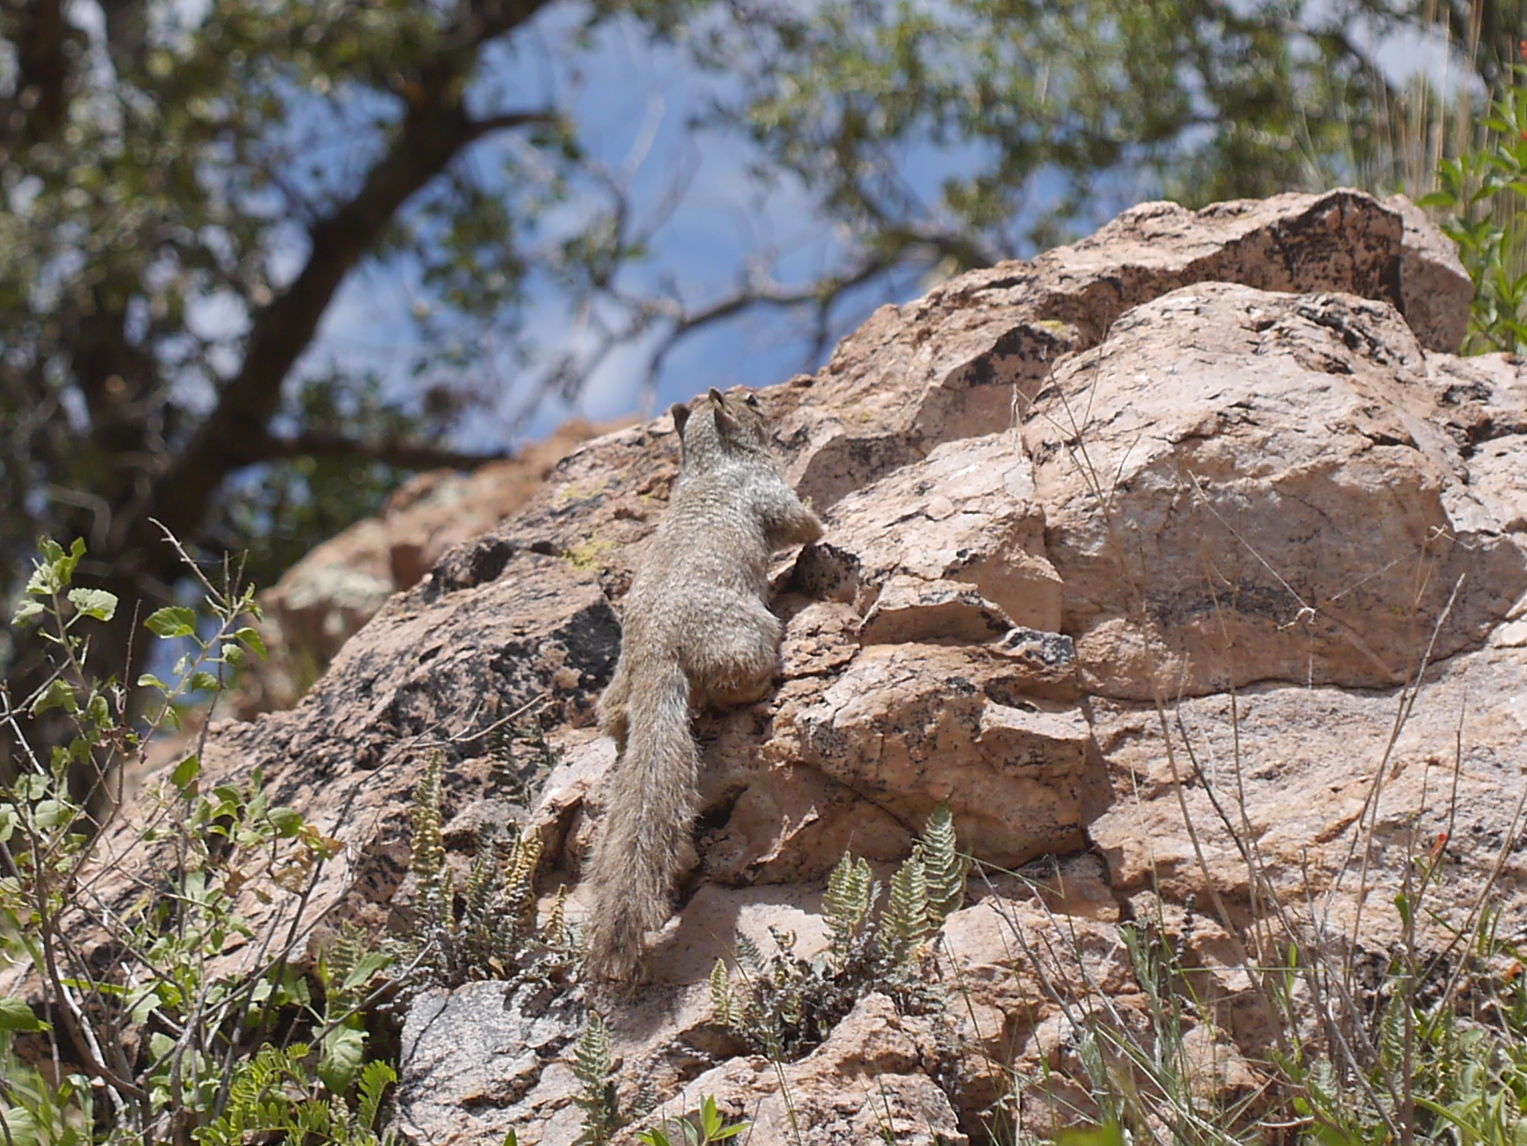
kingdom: Animalia
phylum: Chordata
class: Mammalia
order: Rodentia
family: Sciuridae
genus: Otospermophilus
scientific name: Otospermophilus variegatus
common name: Rock squirrel
